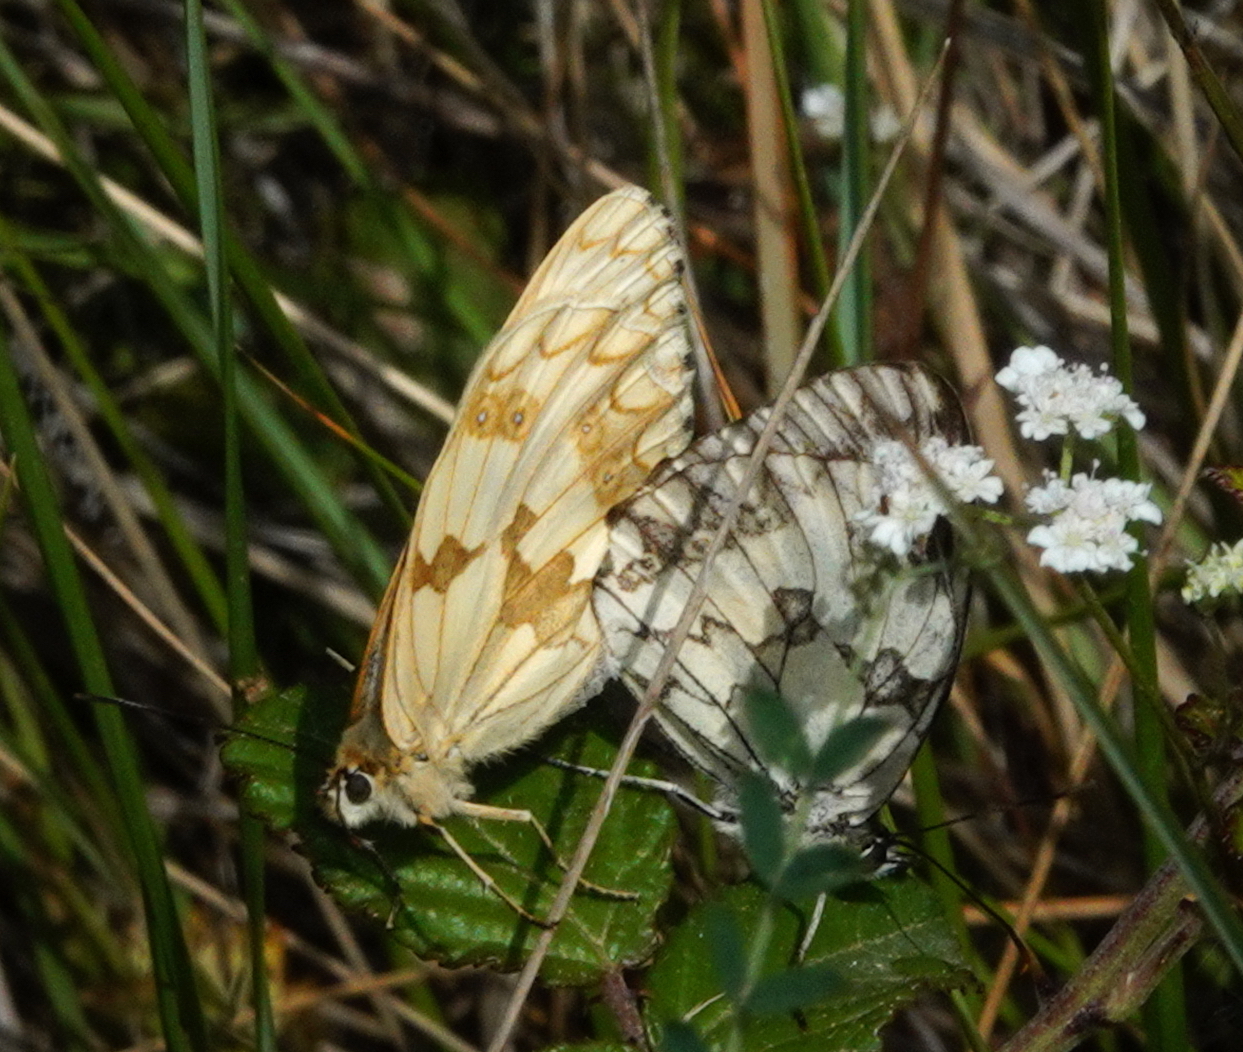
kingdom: Animalia
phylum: Arthropoda
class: Insecta
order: Lepidoptera
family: Nymphalidae
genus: Melanargia
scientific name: Melanargia lachesis
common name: Iberian marbled white
